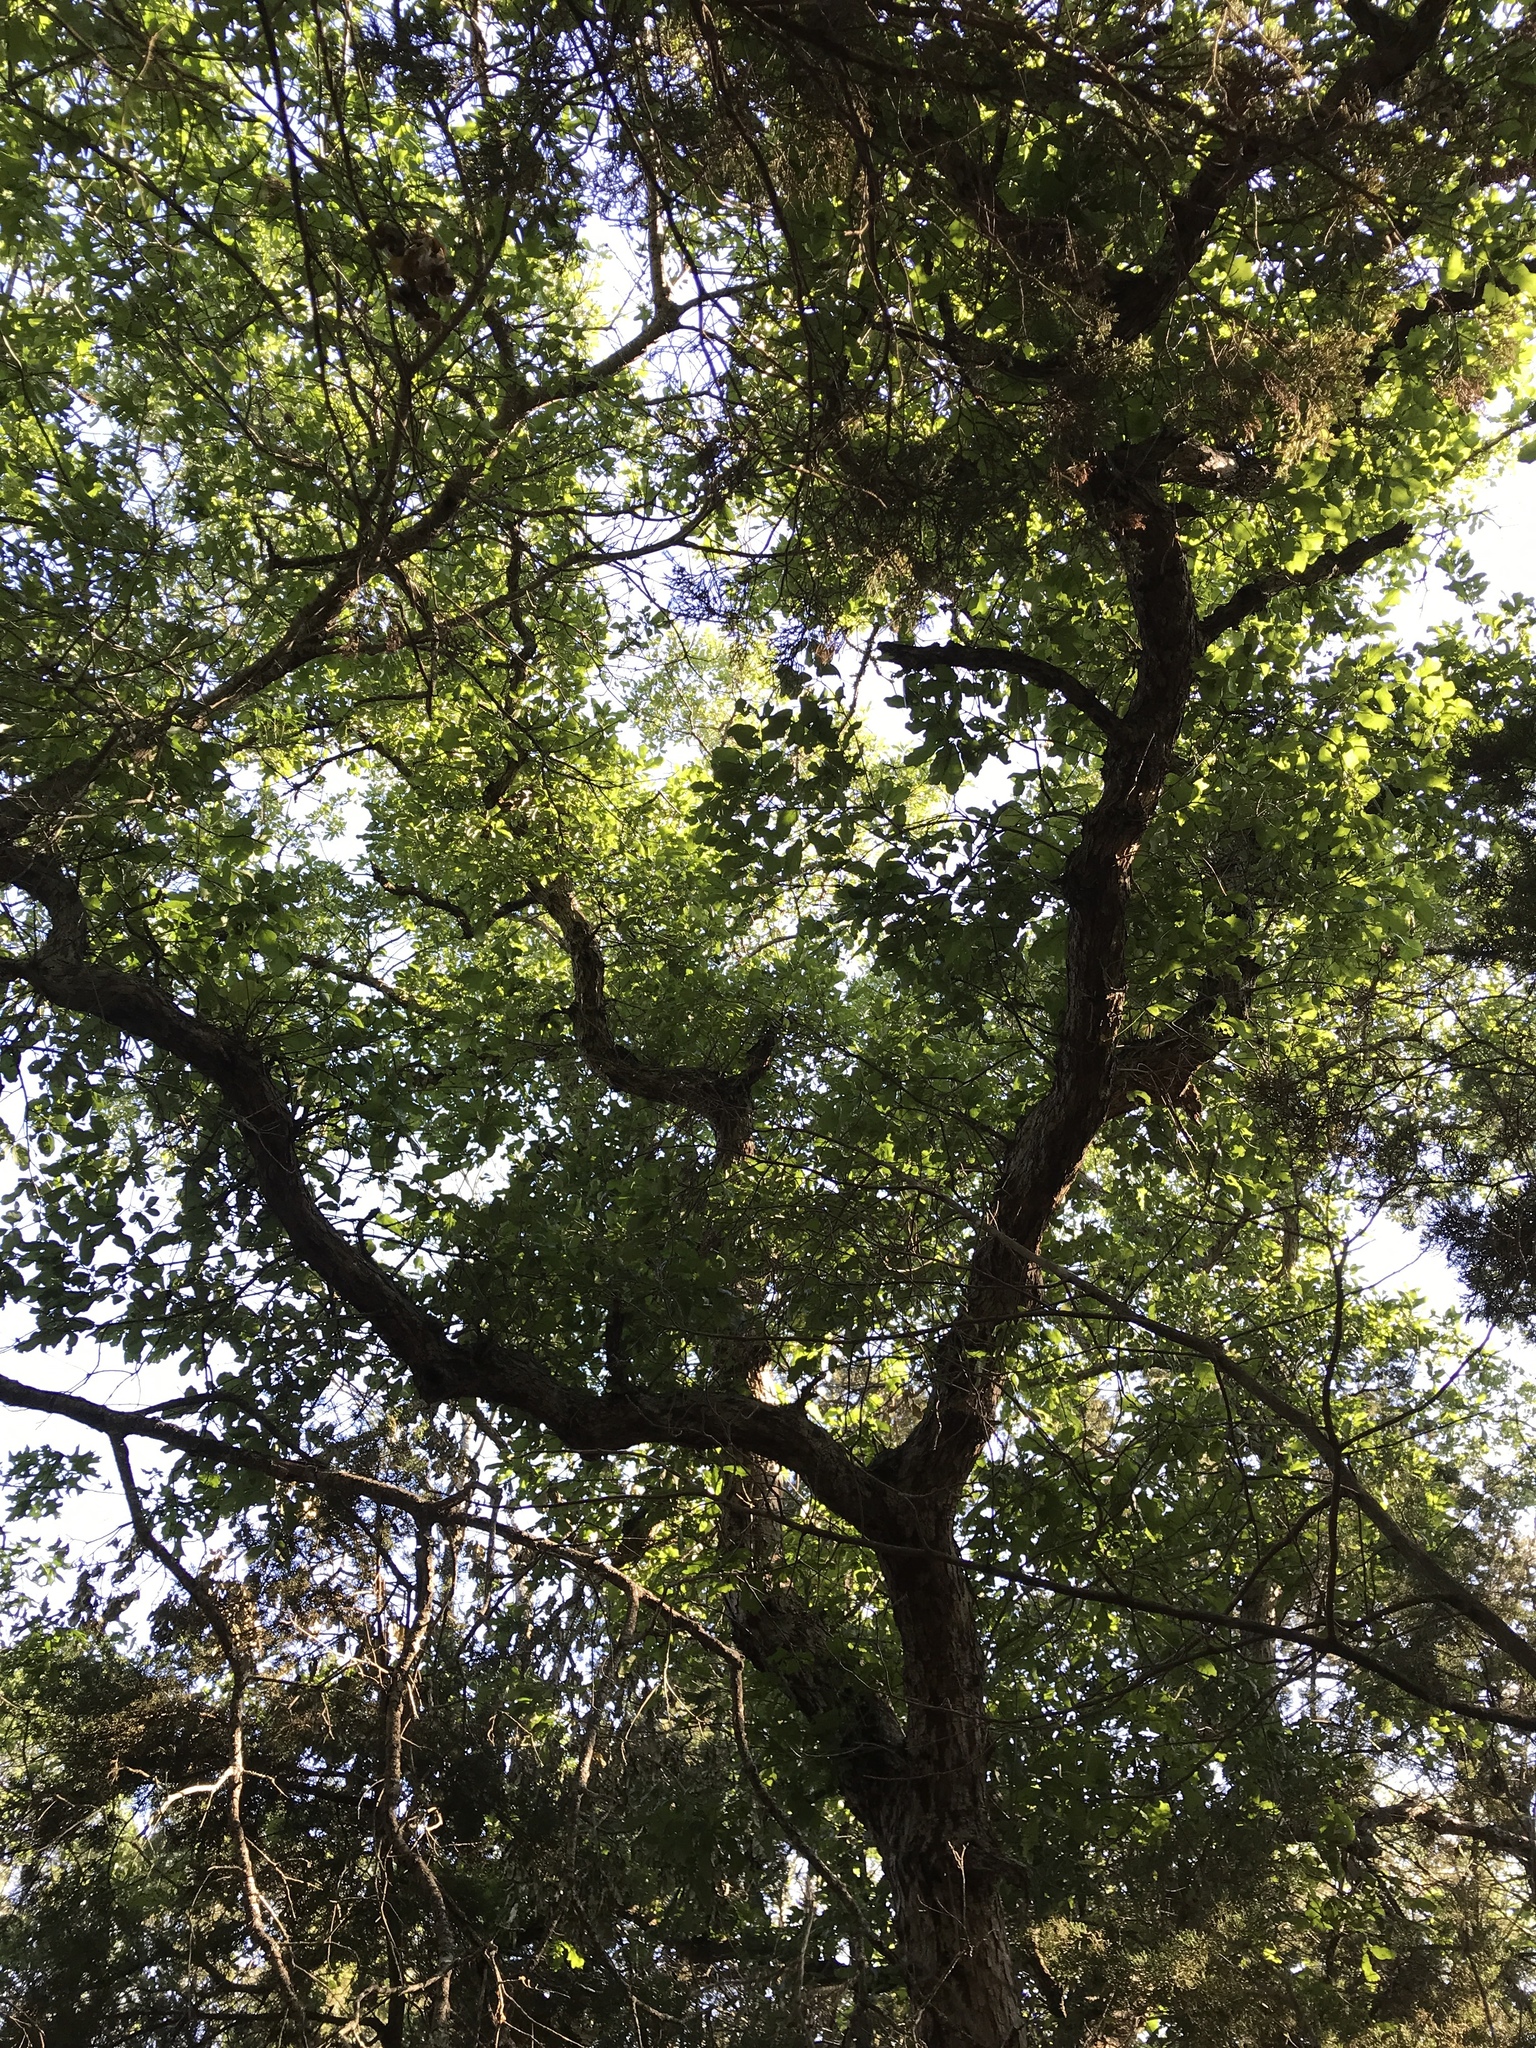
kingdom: Plantae
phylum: Tracheophyta
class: Magnoliopsida
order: Fagales
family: Fagaceae
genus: Quercus
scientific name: Quercus sinuata
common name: Durand oak
